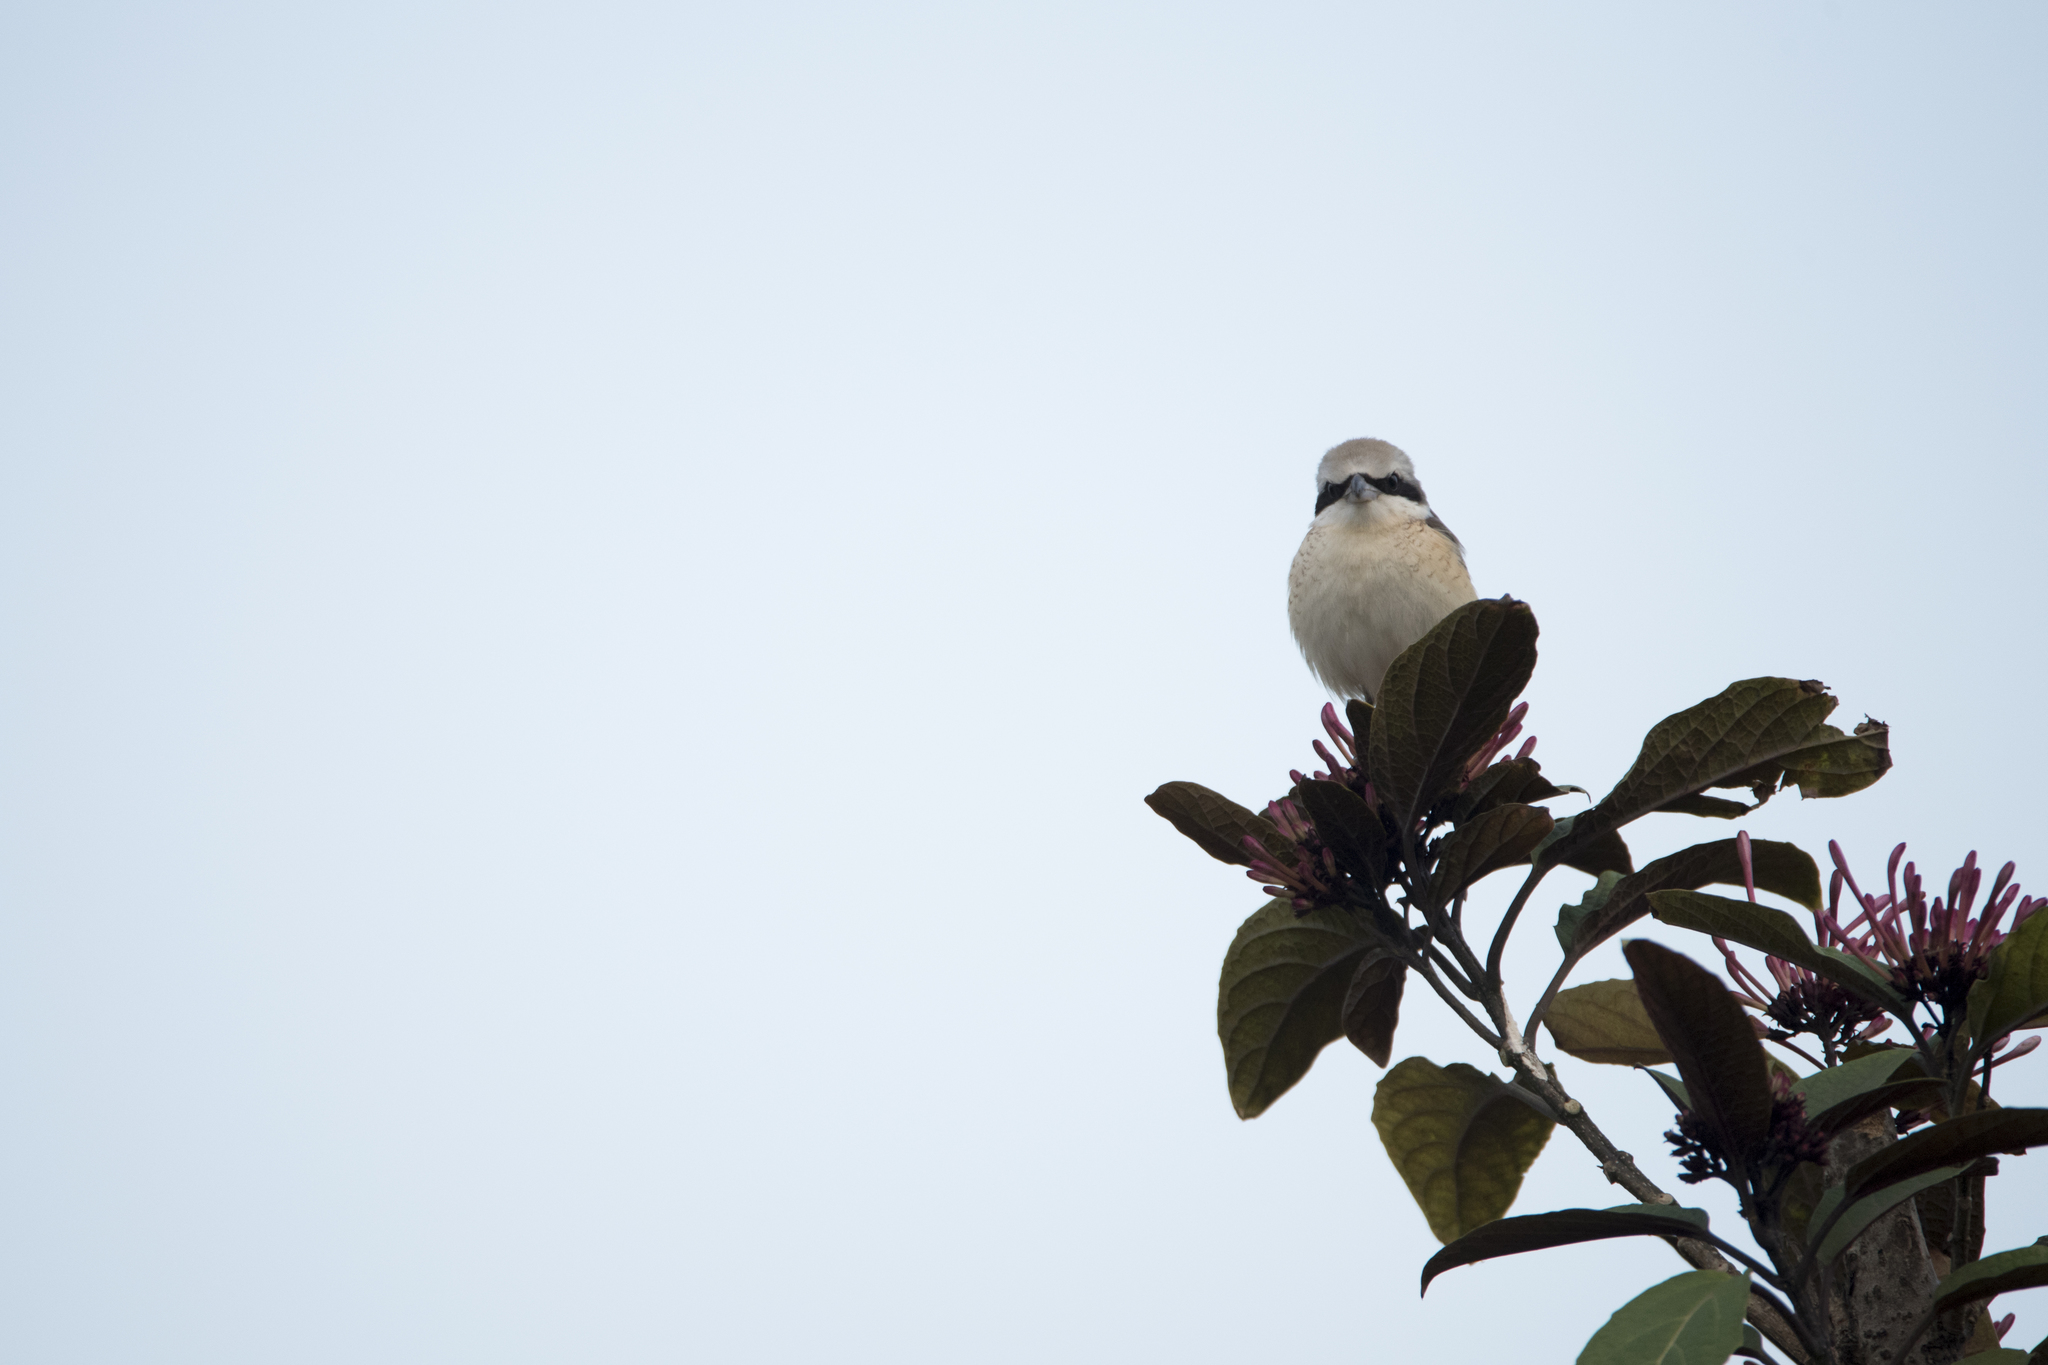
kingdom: Animalia
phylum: Chordata
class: Aves
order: Passeriformes
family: Laniidae
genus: Lanius
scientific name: Lanius cristatus
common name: Brown shrike
